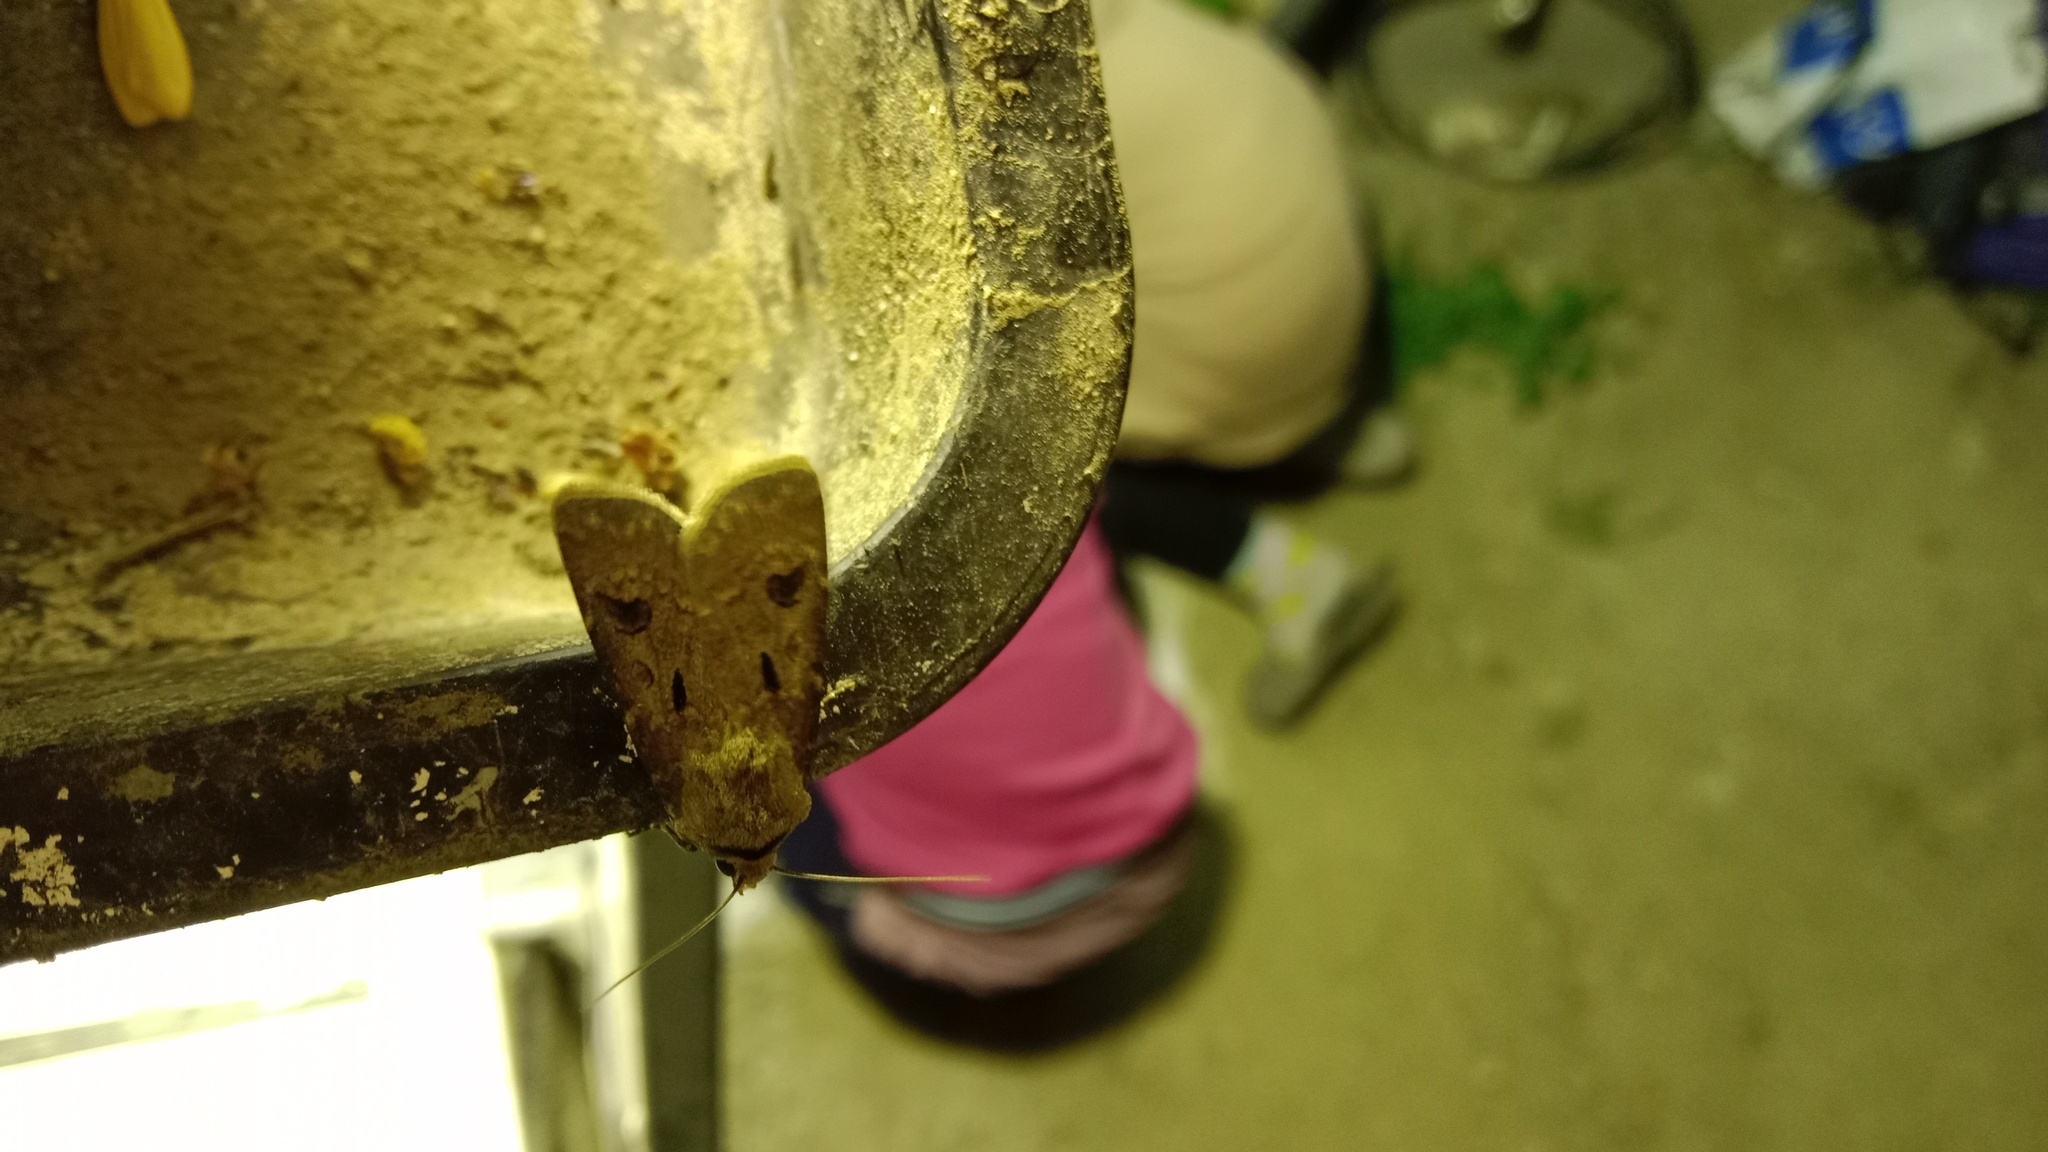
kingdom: Animalia
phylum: Arthropoda
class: Insecta
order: Lepidoptera
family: Noctuidae
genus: Agrotis
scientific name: Agrotis exclamationis
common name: Heart and dart
